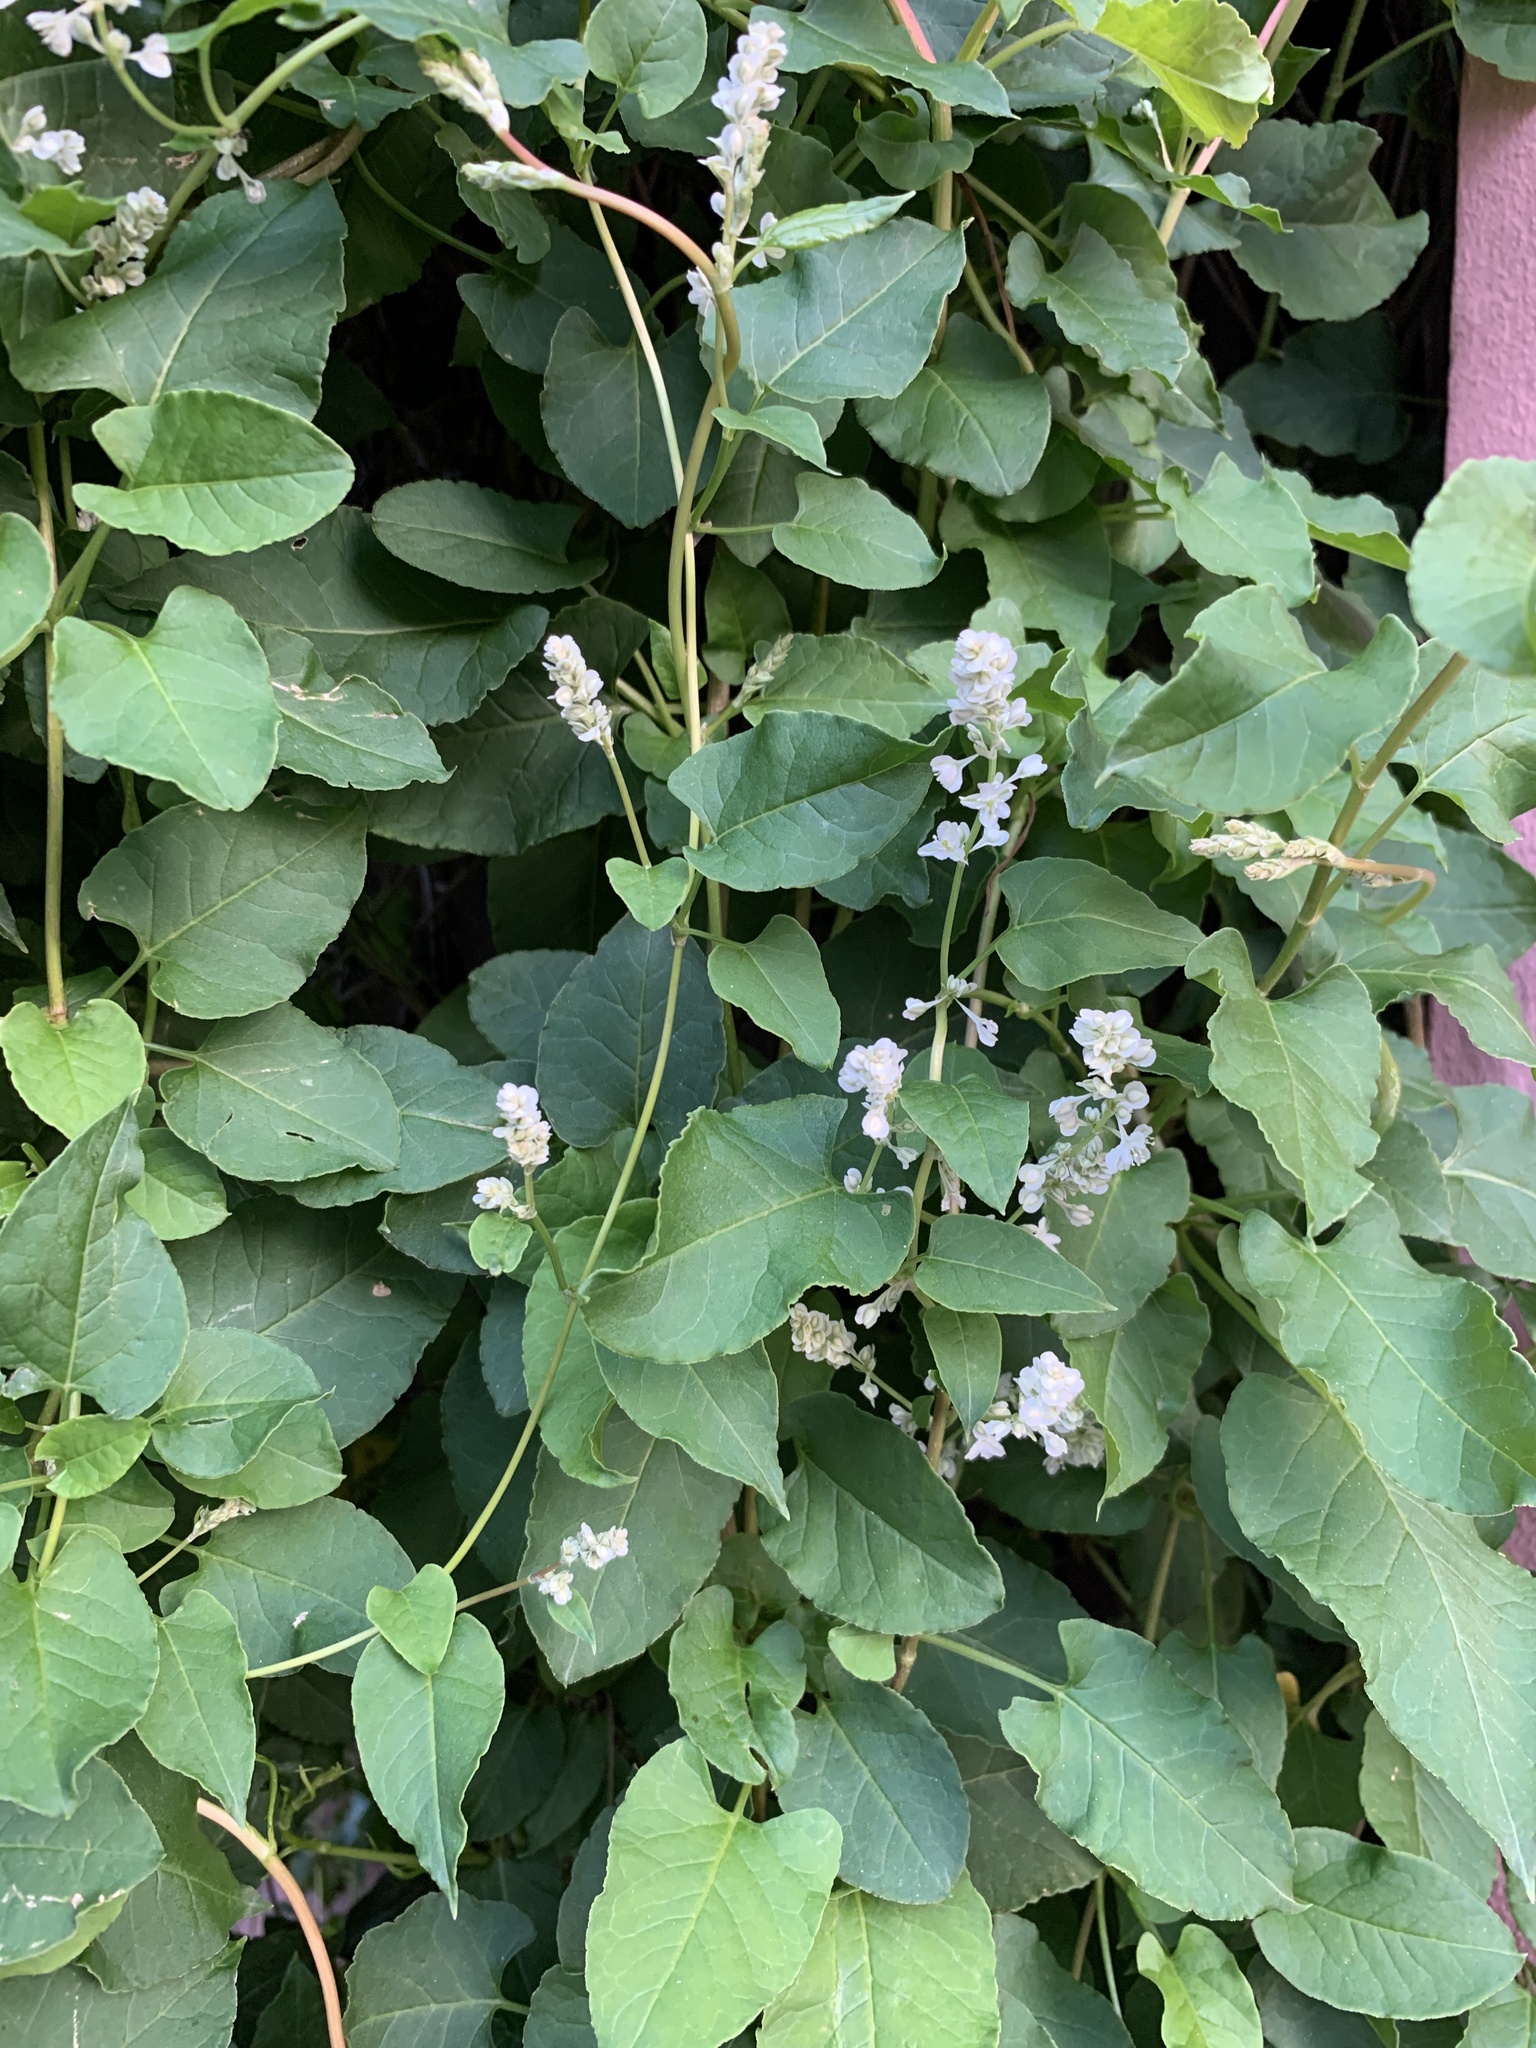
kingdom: Plantae
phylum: Tracheophyta
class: Magnoliopsida
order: Caryophyllales
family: Polygonaceae
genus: Fallopia
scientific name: Fallopia baldschuanica
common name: Russian-vine
